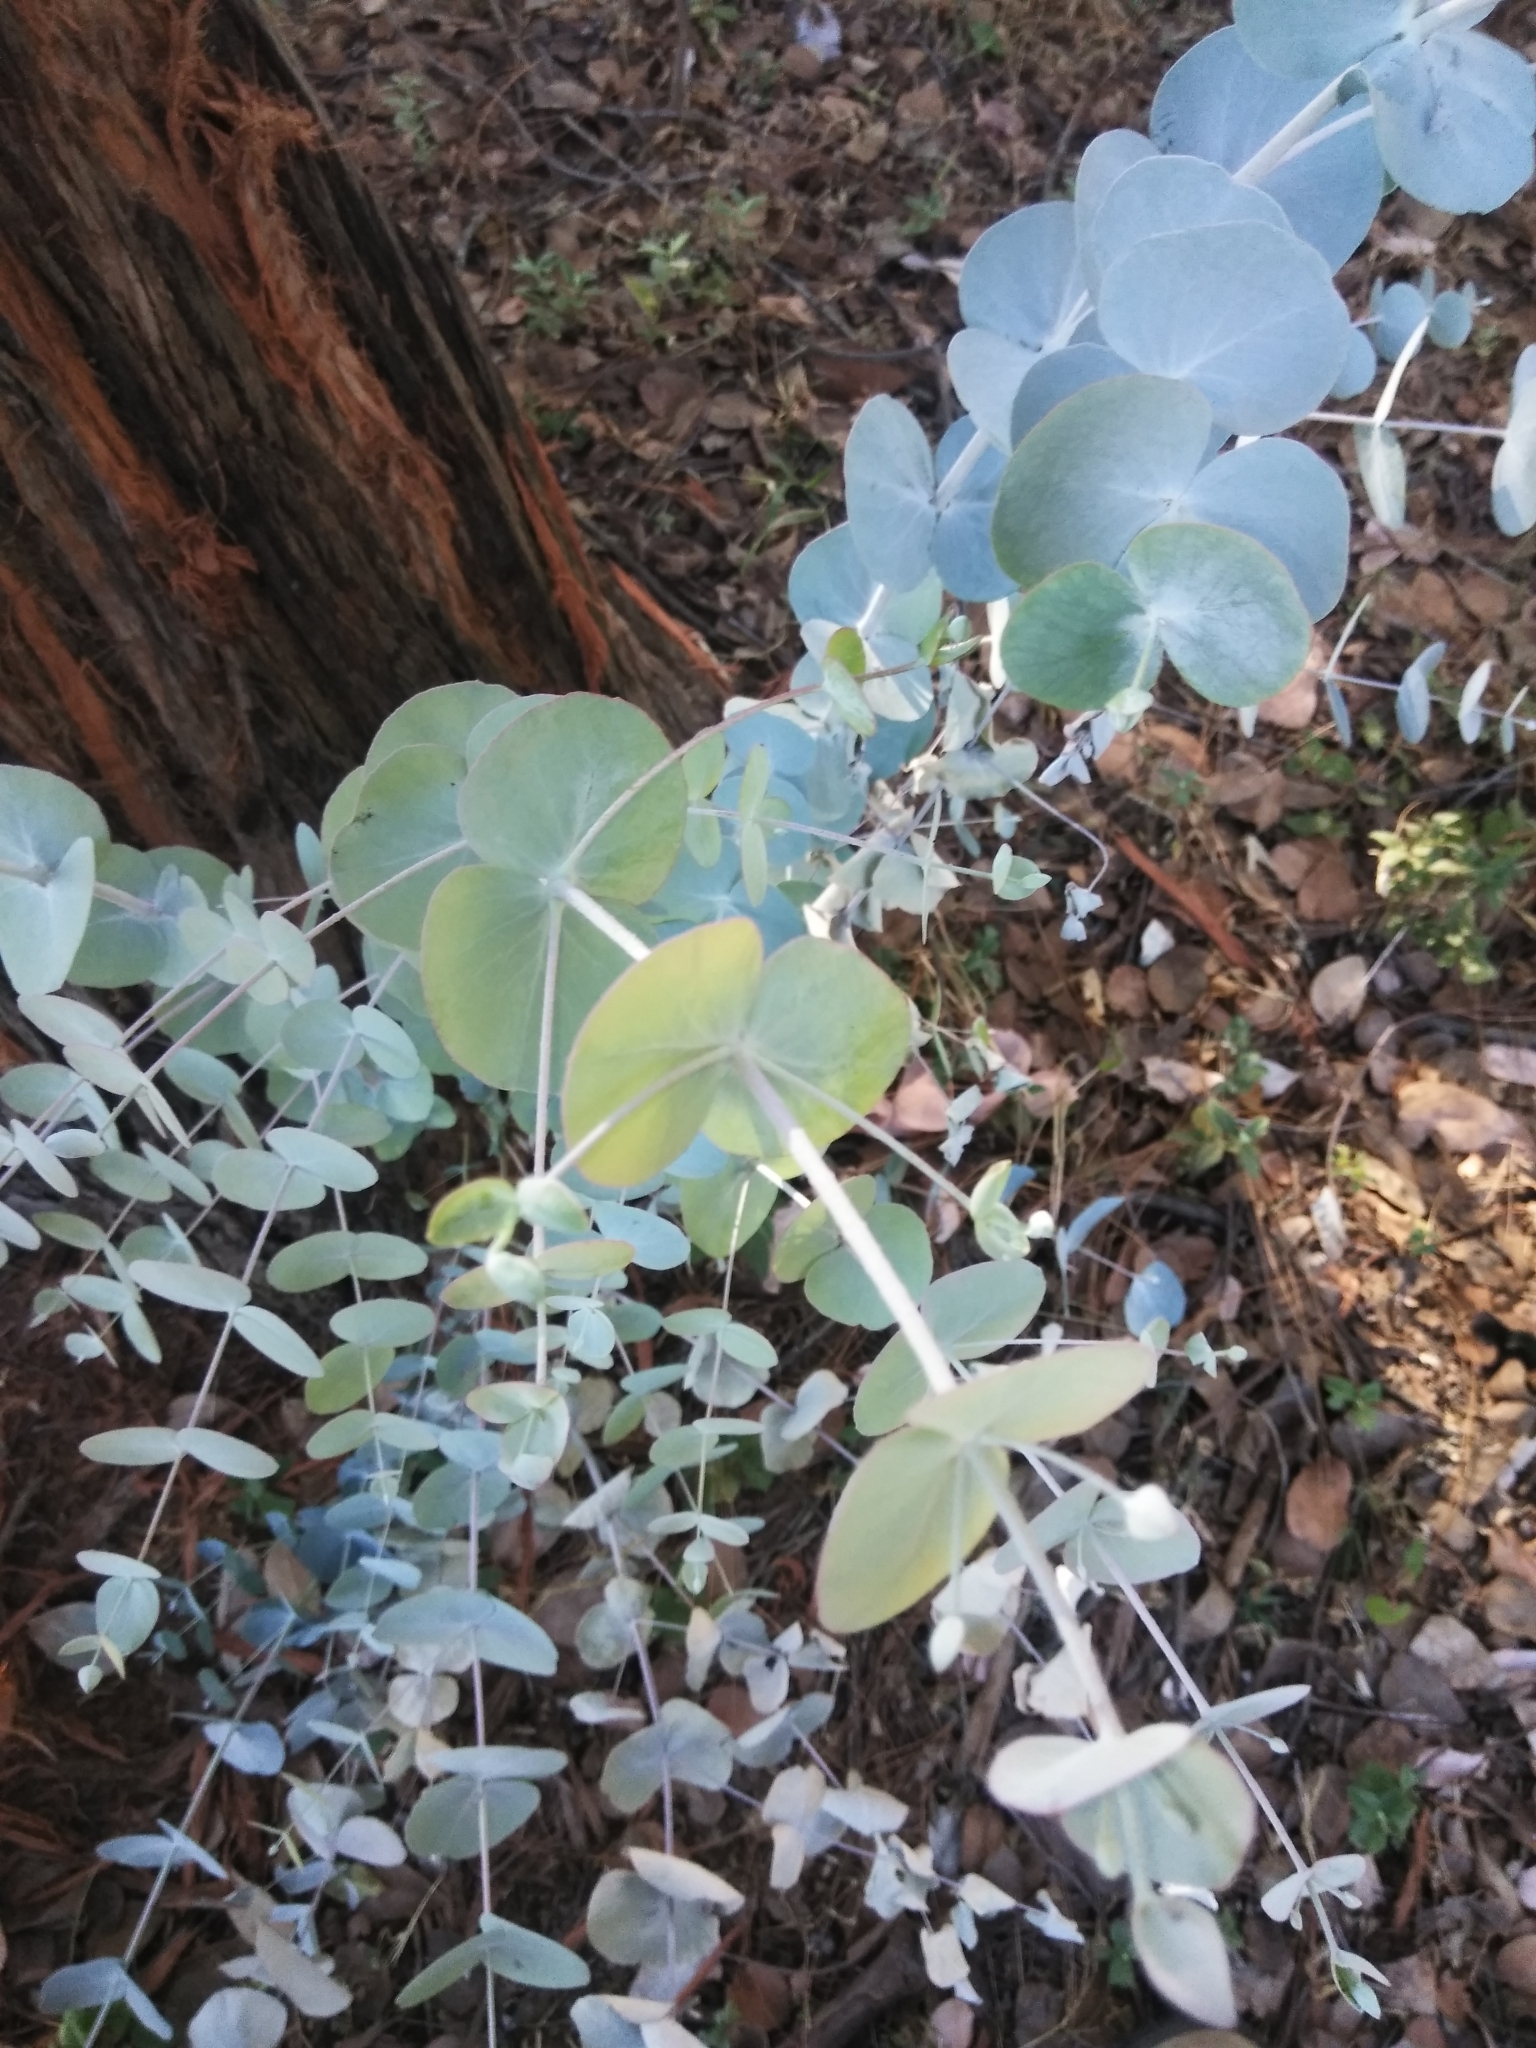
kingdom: Plantae
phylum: Tracheophyta
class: Magnoliopsida
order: Myrtales
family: Myrtaceae
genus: Eucalyptus
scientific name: Eucalyptus cinerea
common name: Argyle apple
